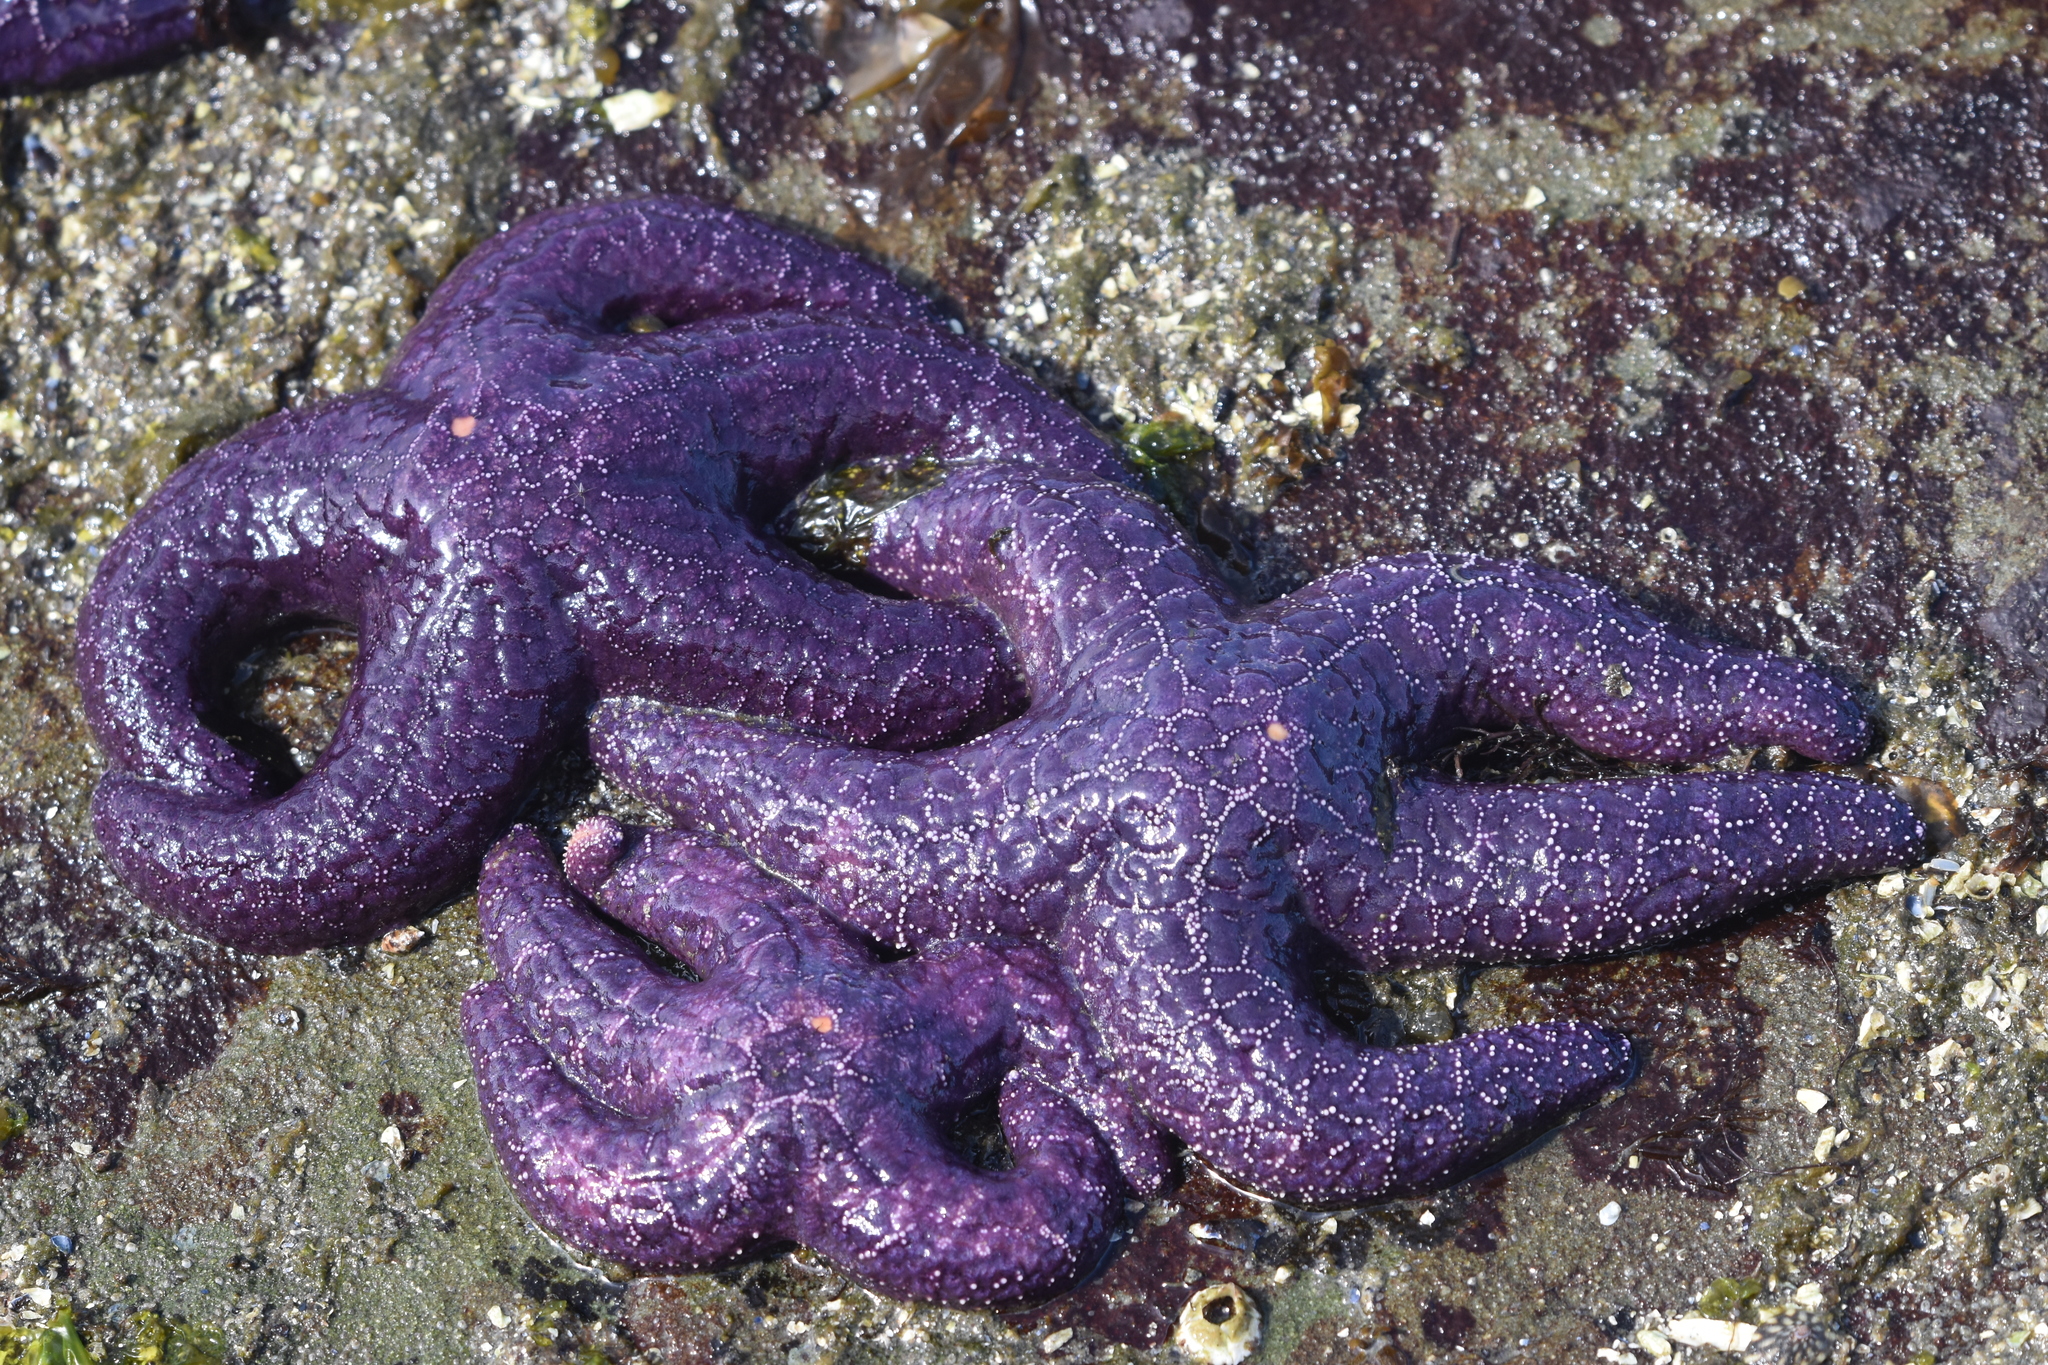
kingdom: Animalia
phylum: Echinodermata
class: Asteroidea
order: Forcipulatida
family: Asteriidae
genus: Pisaster
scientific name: Pisaster ochraceus
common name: Ochre stars
